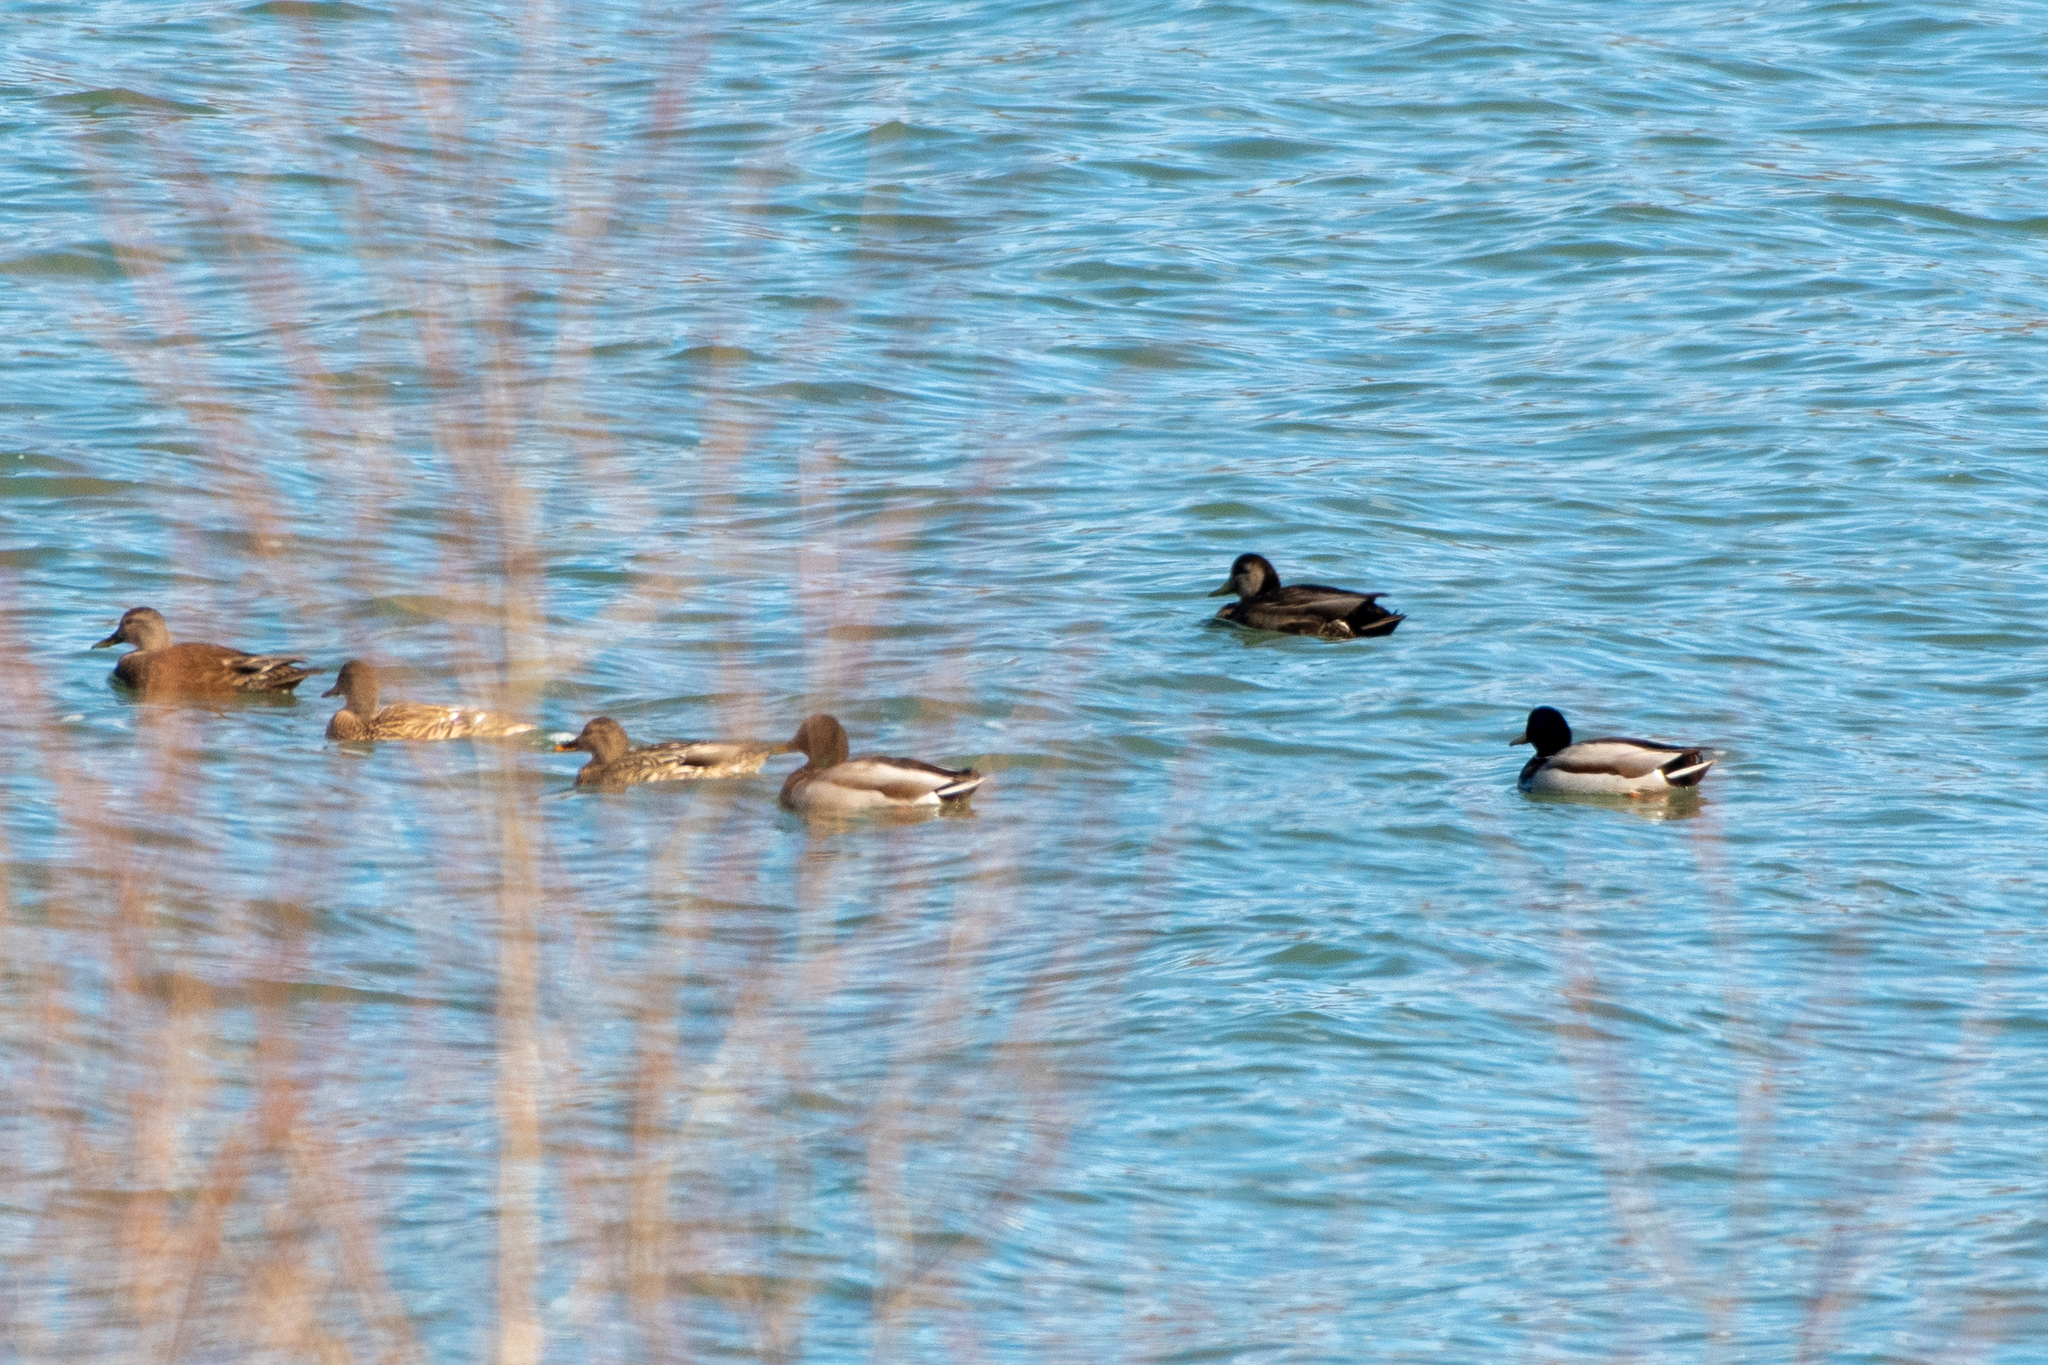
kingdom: Animalia
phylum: Chordata
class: Aves
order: Anseriformes
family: Anatidae
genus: Anas
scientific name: Anas platyrhynchos
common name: Mallard
